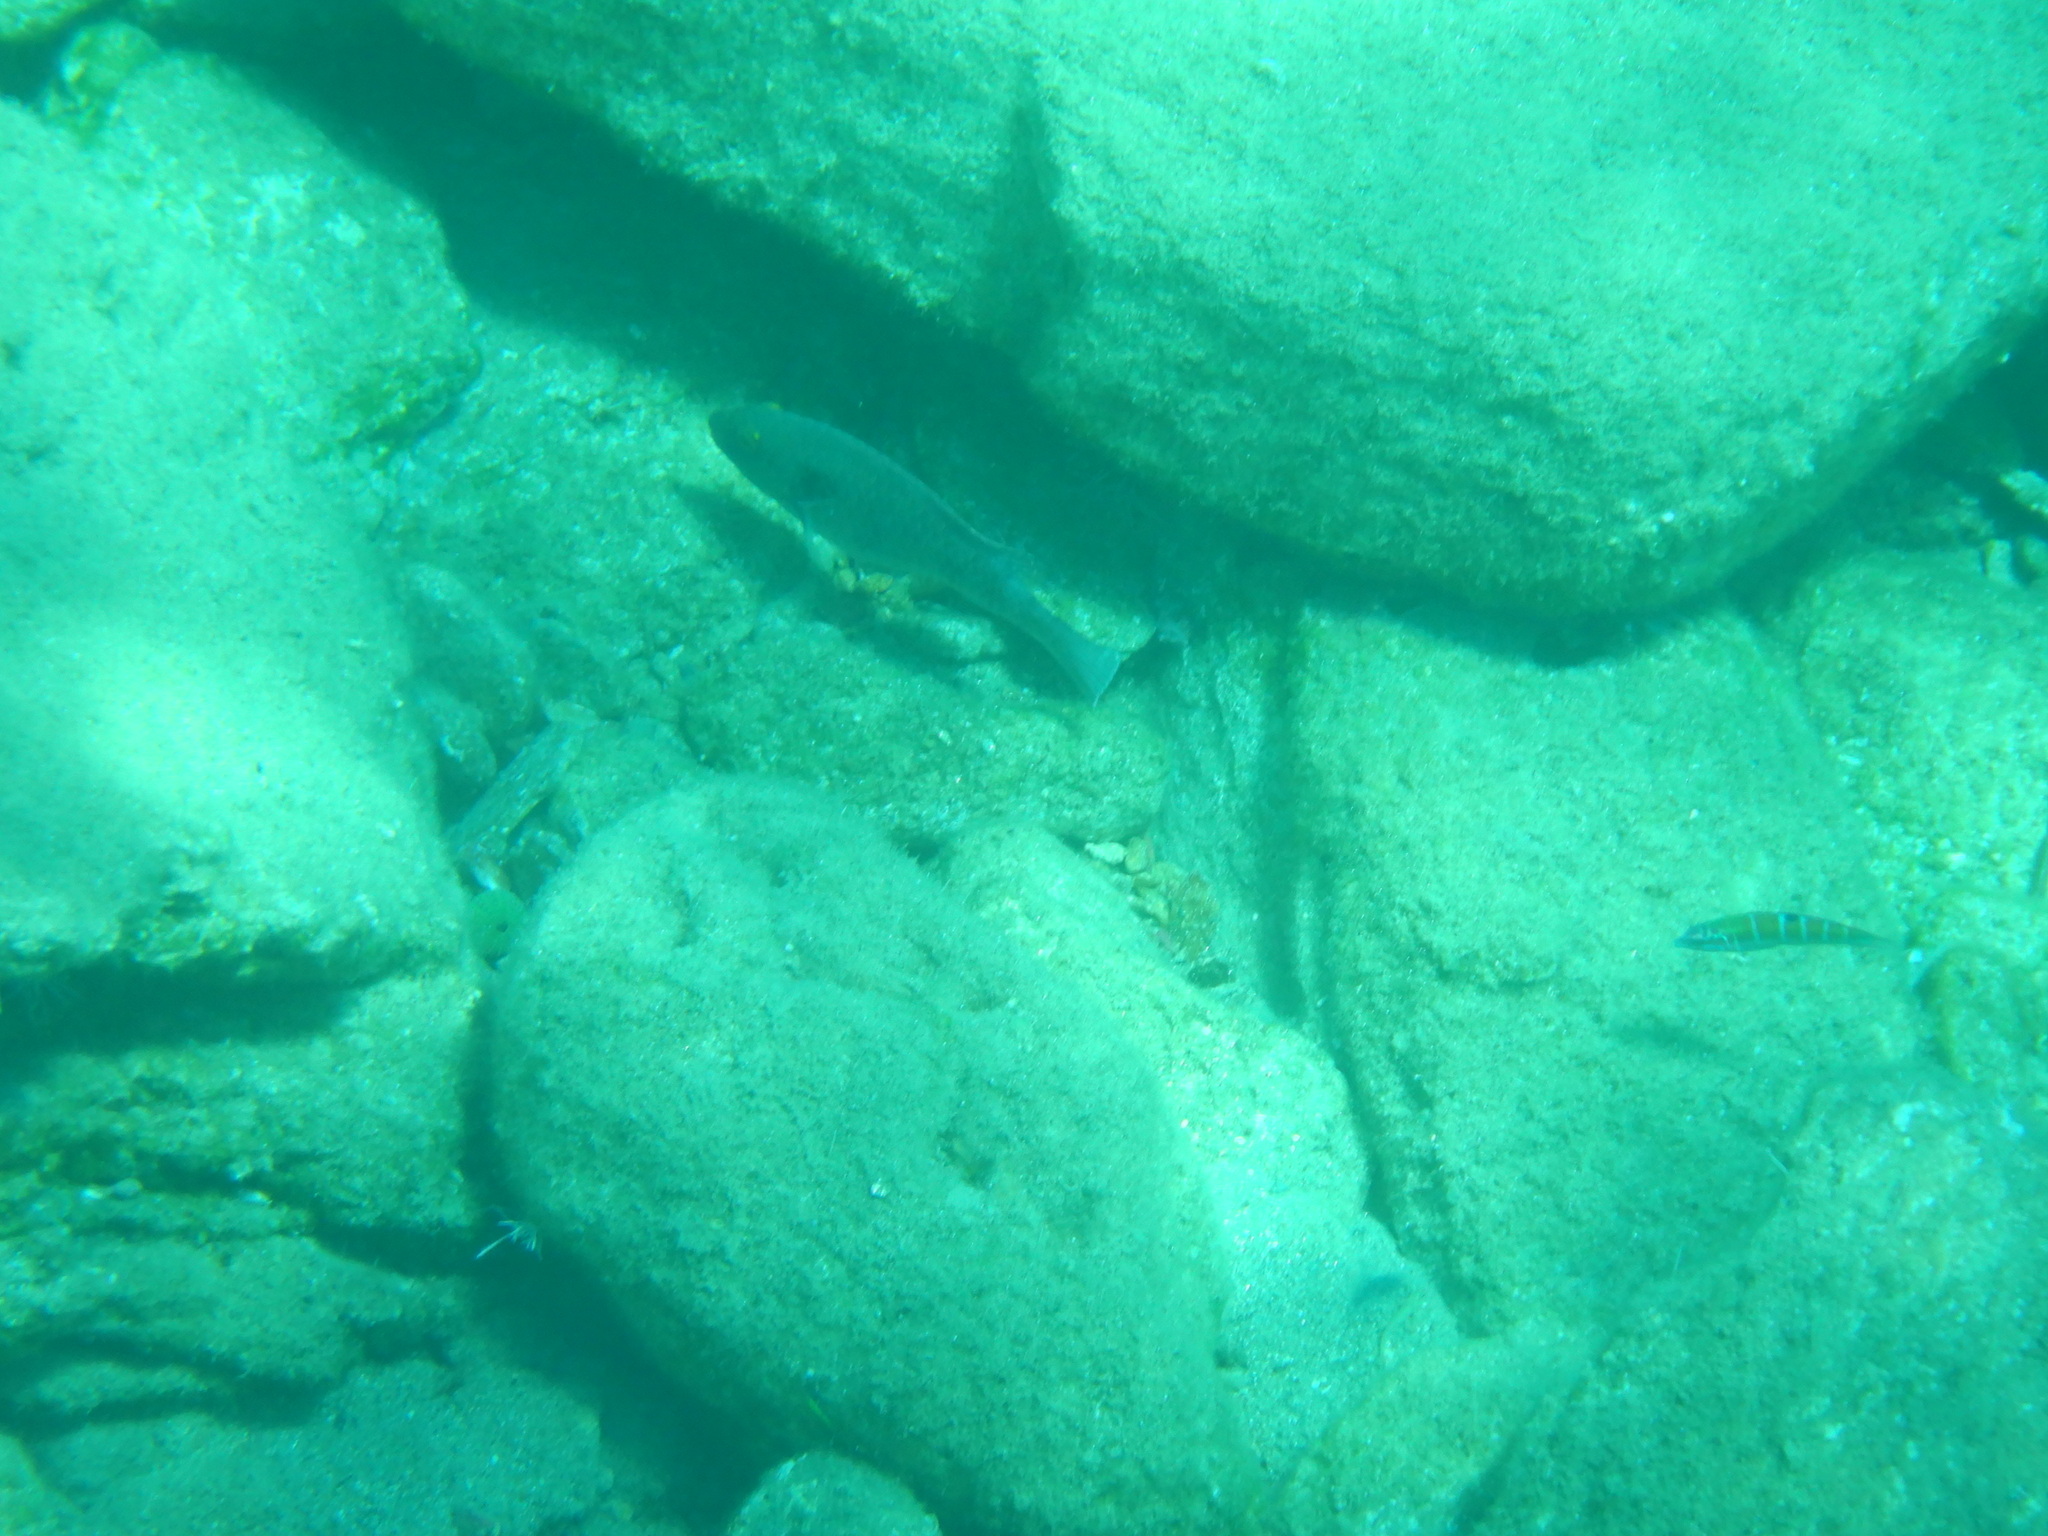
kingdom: Animalia
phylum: Chordata
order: Perciformes
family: Scaridae
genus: Sparisoma
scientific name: Sparisoma cretense
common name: Parrotfish
